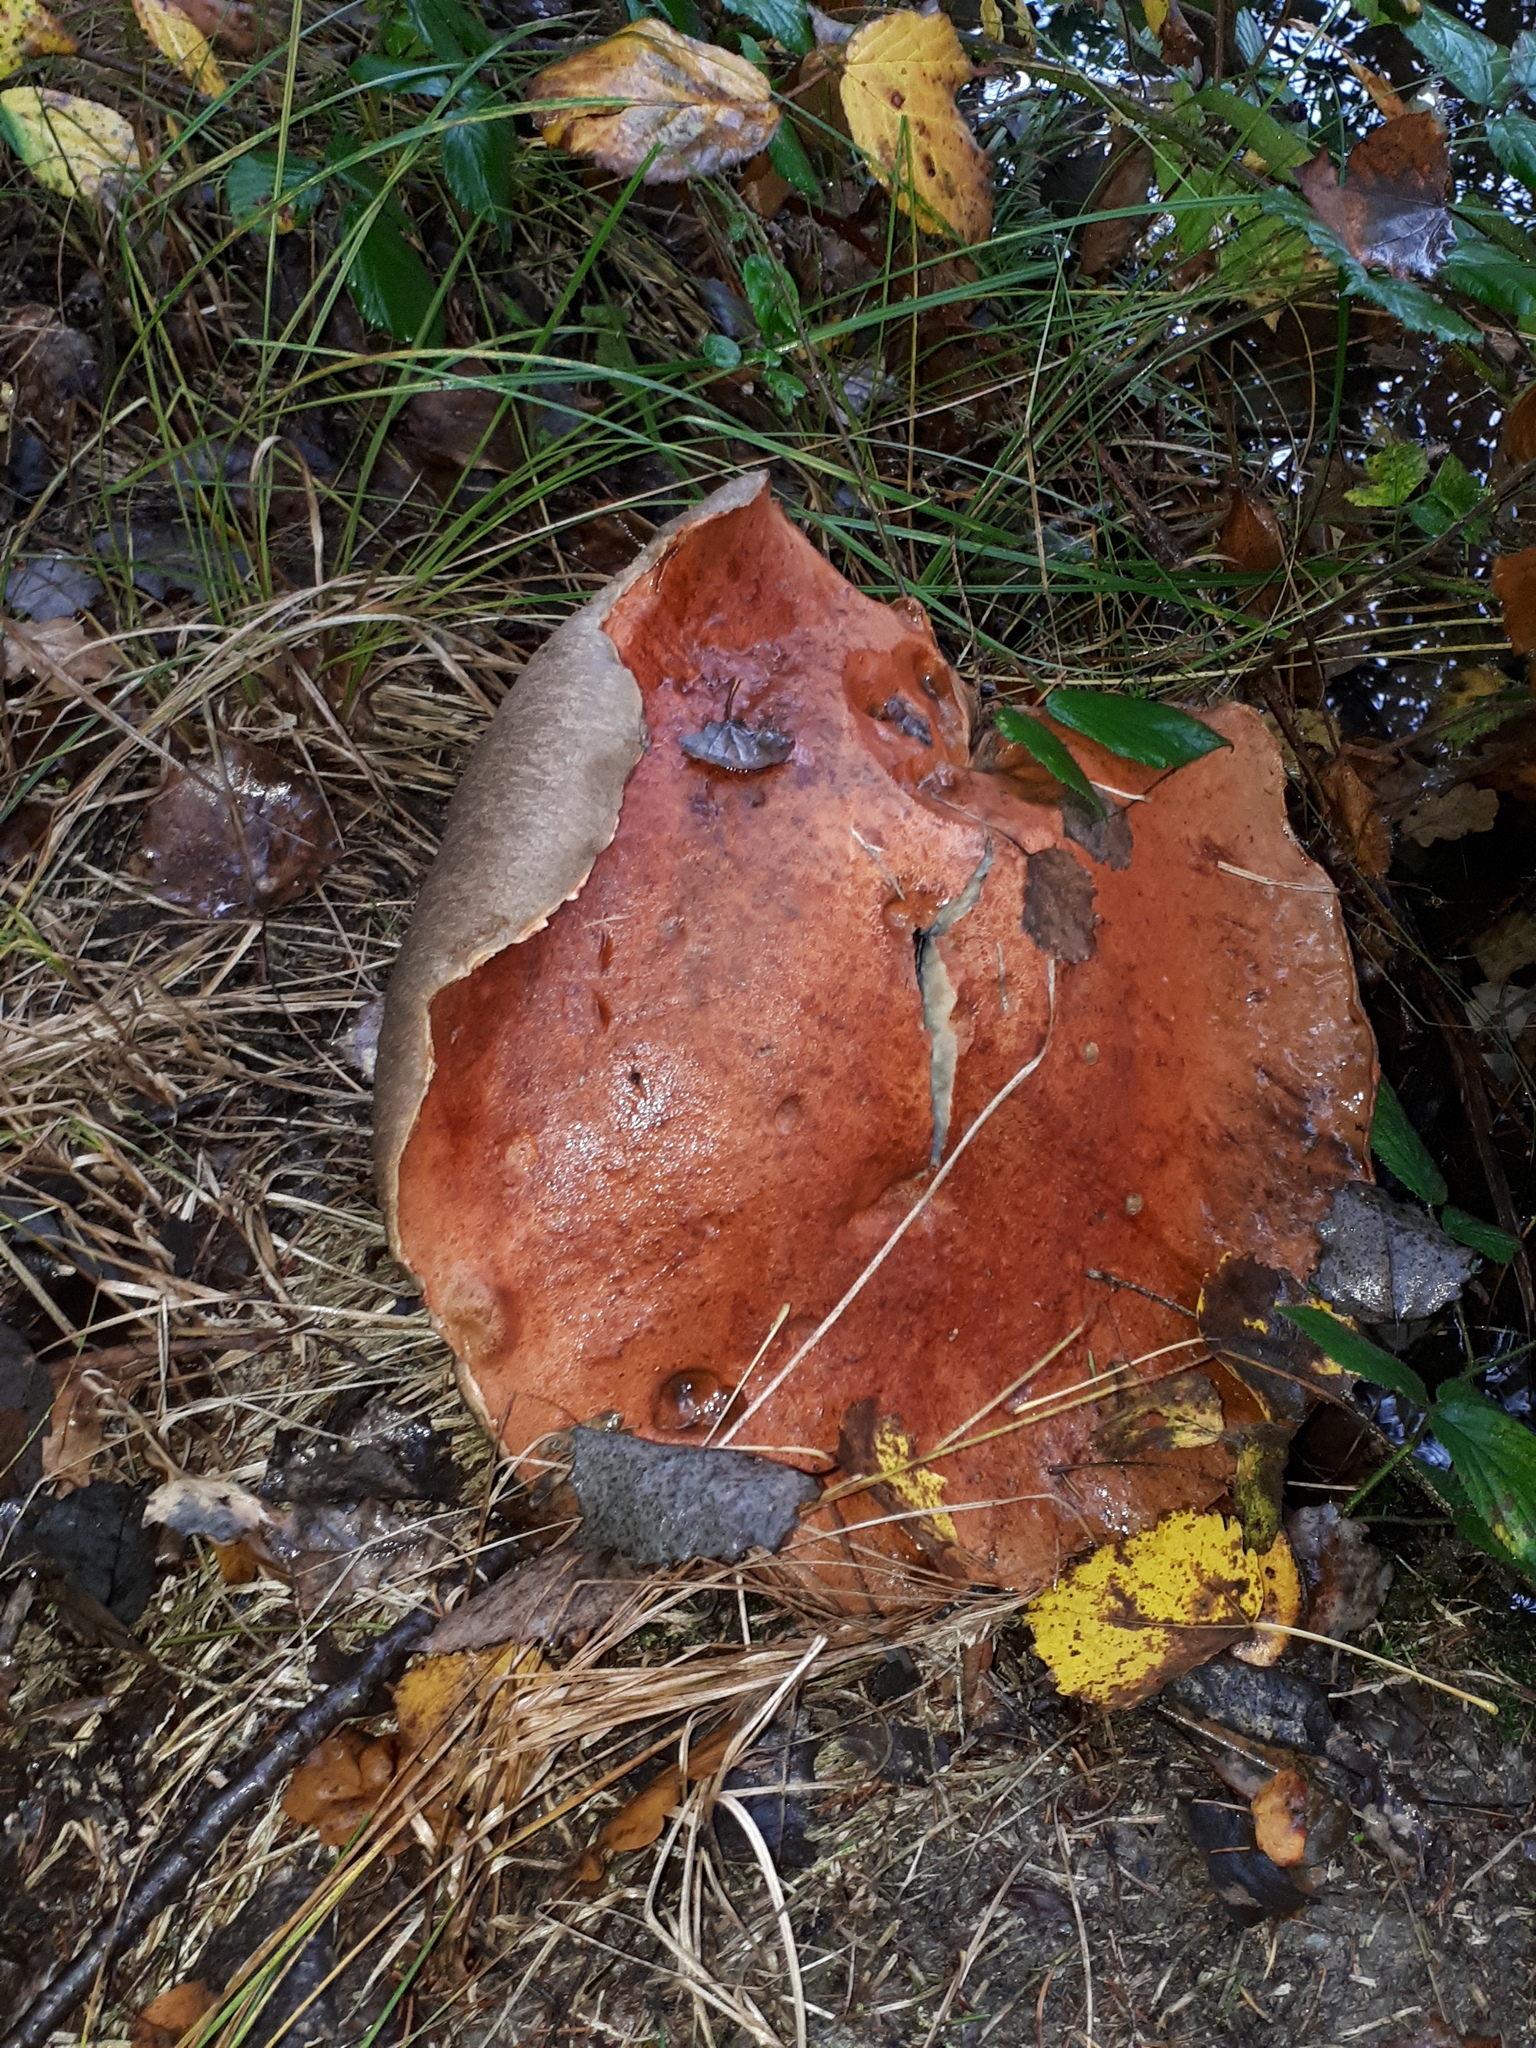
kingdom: Fungi
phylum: Basidiomycota
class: Agaricomycetes
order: Boletales
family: Boletaceae
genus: Leccinum
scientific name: Leccinum aurantiacum
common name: Orange bolete
